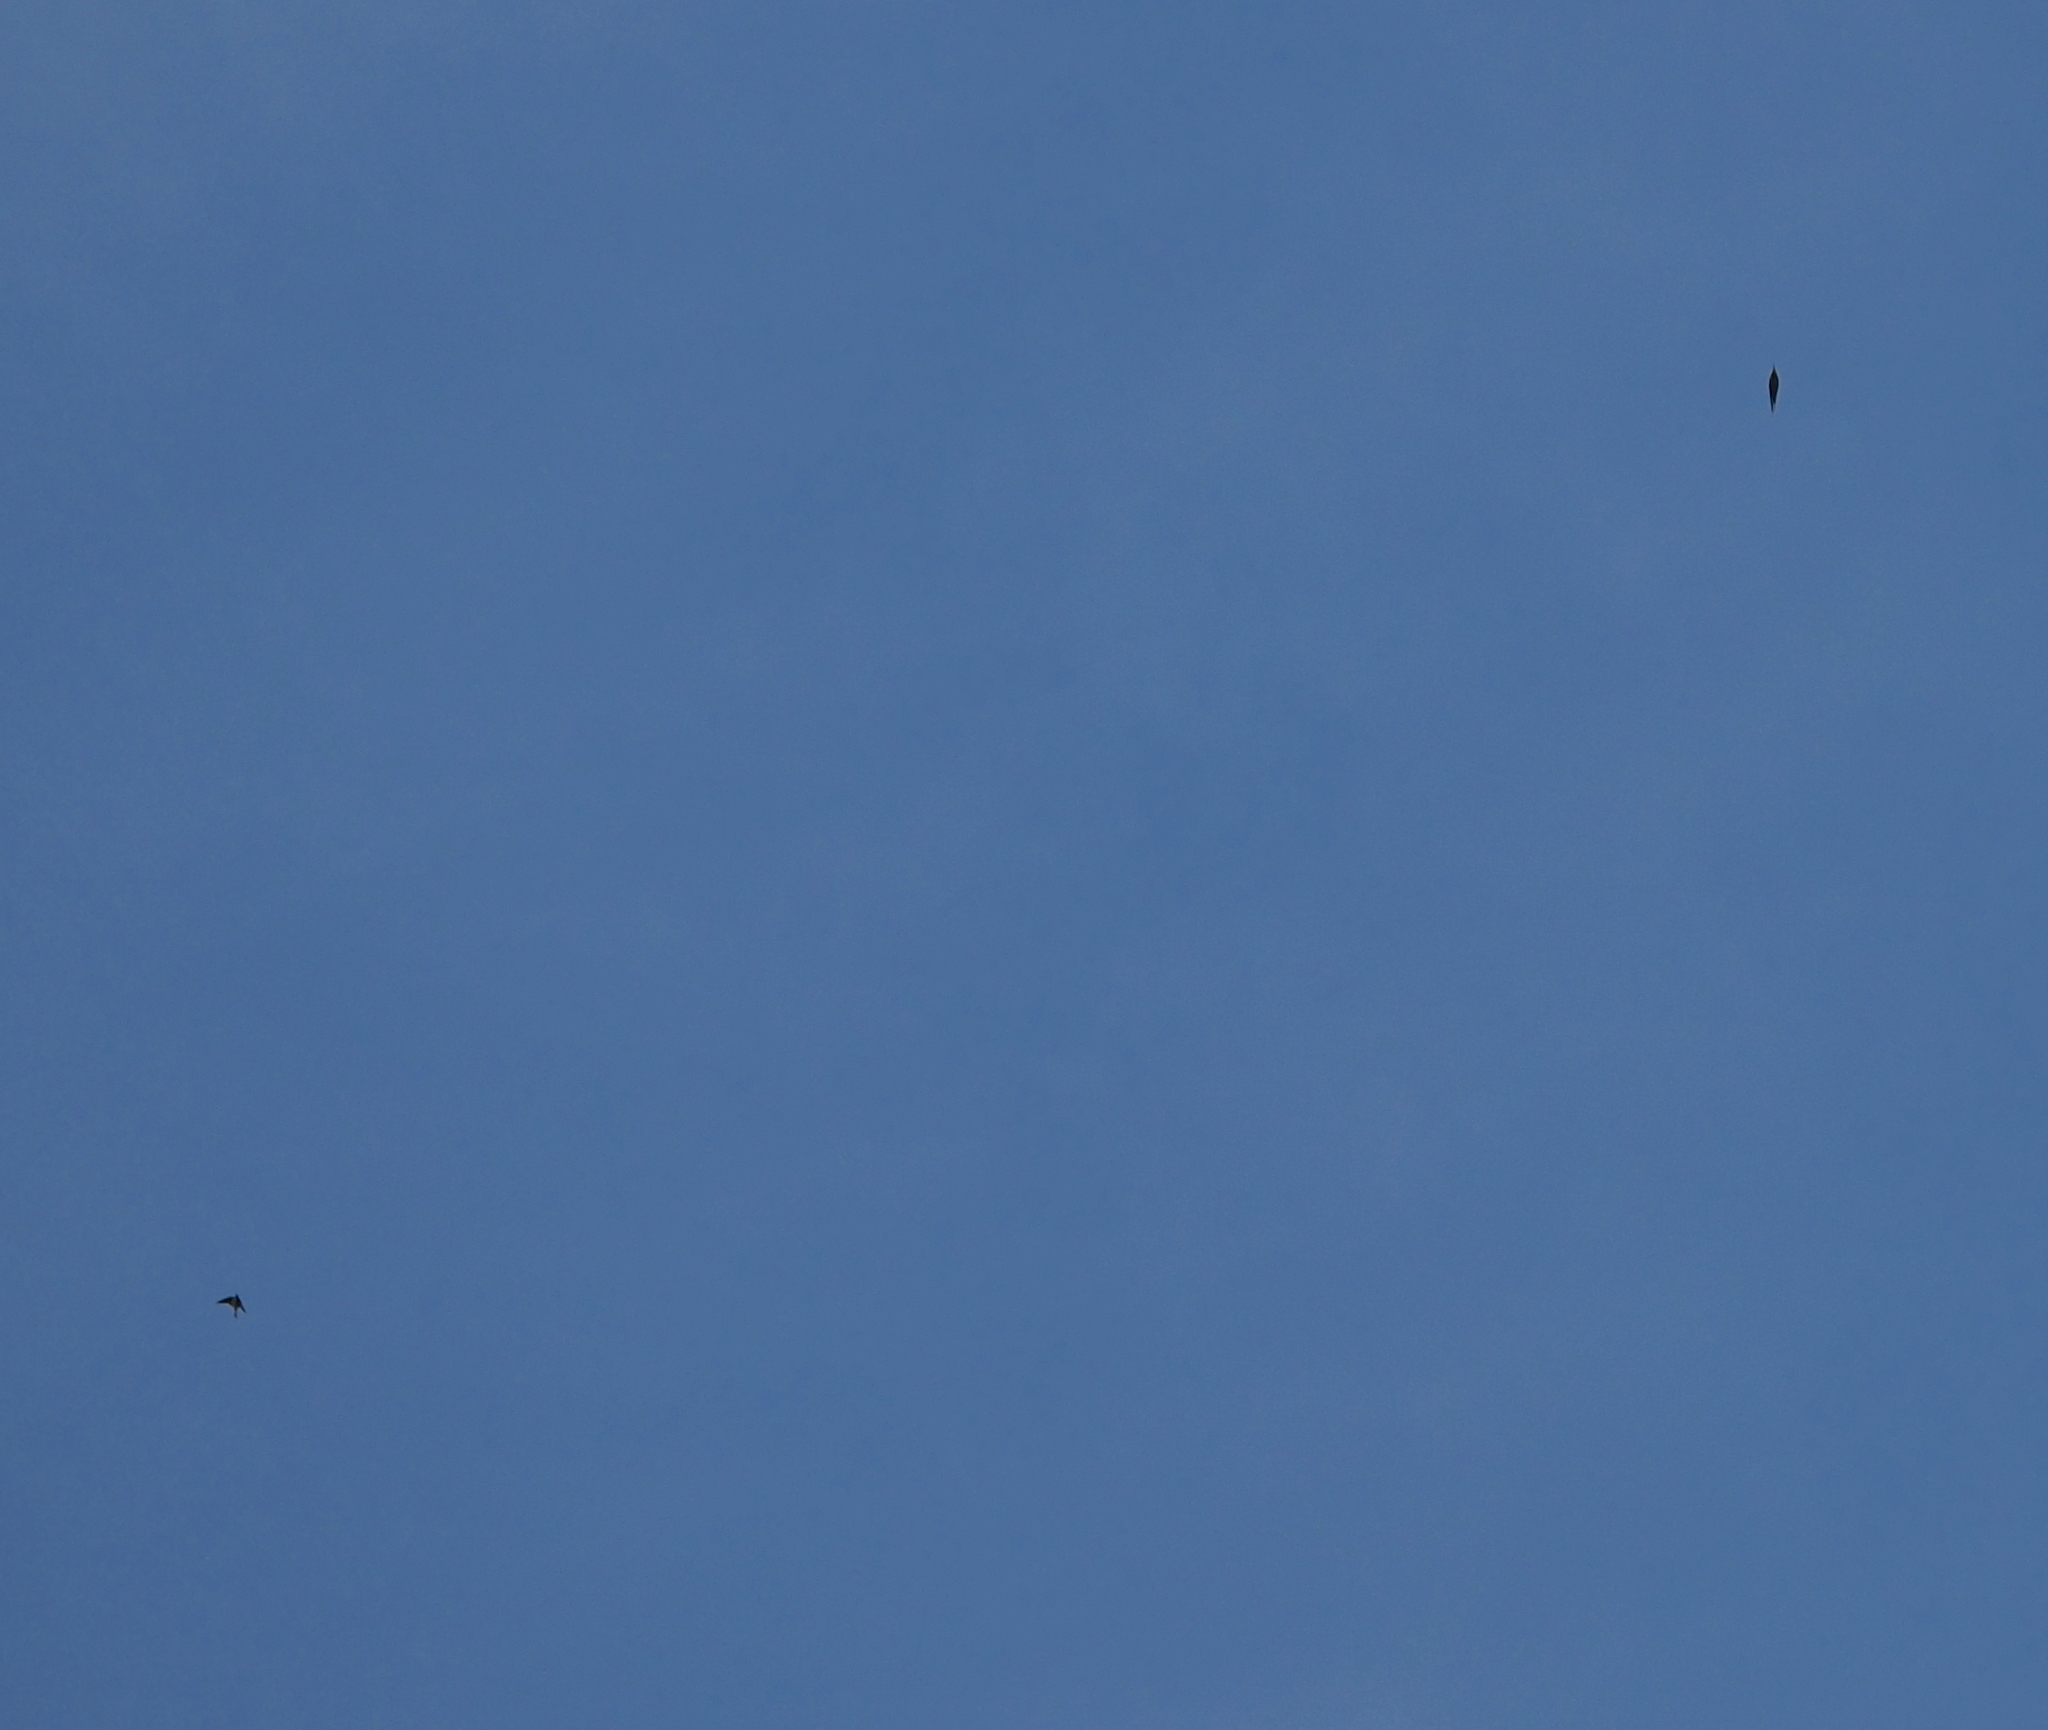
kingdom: Animalia
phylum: Chordata
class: Aves
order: Coraciiformes
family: Meropidae
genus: Merops
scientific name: Merops apiaster
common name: European bee-eater
